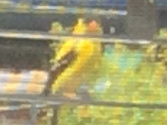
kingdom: Animalia
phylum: Chordata
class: Aves
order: Passeriformes
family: Fringillidae
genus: Spinus
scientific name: Spinus tristis
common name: American goldfinch
